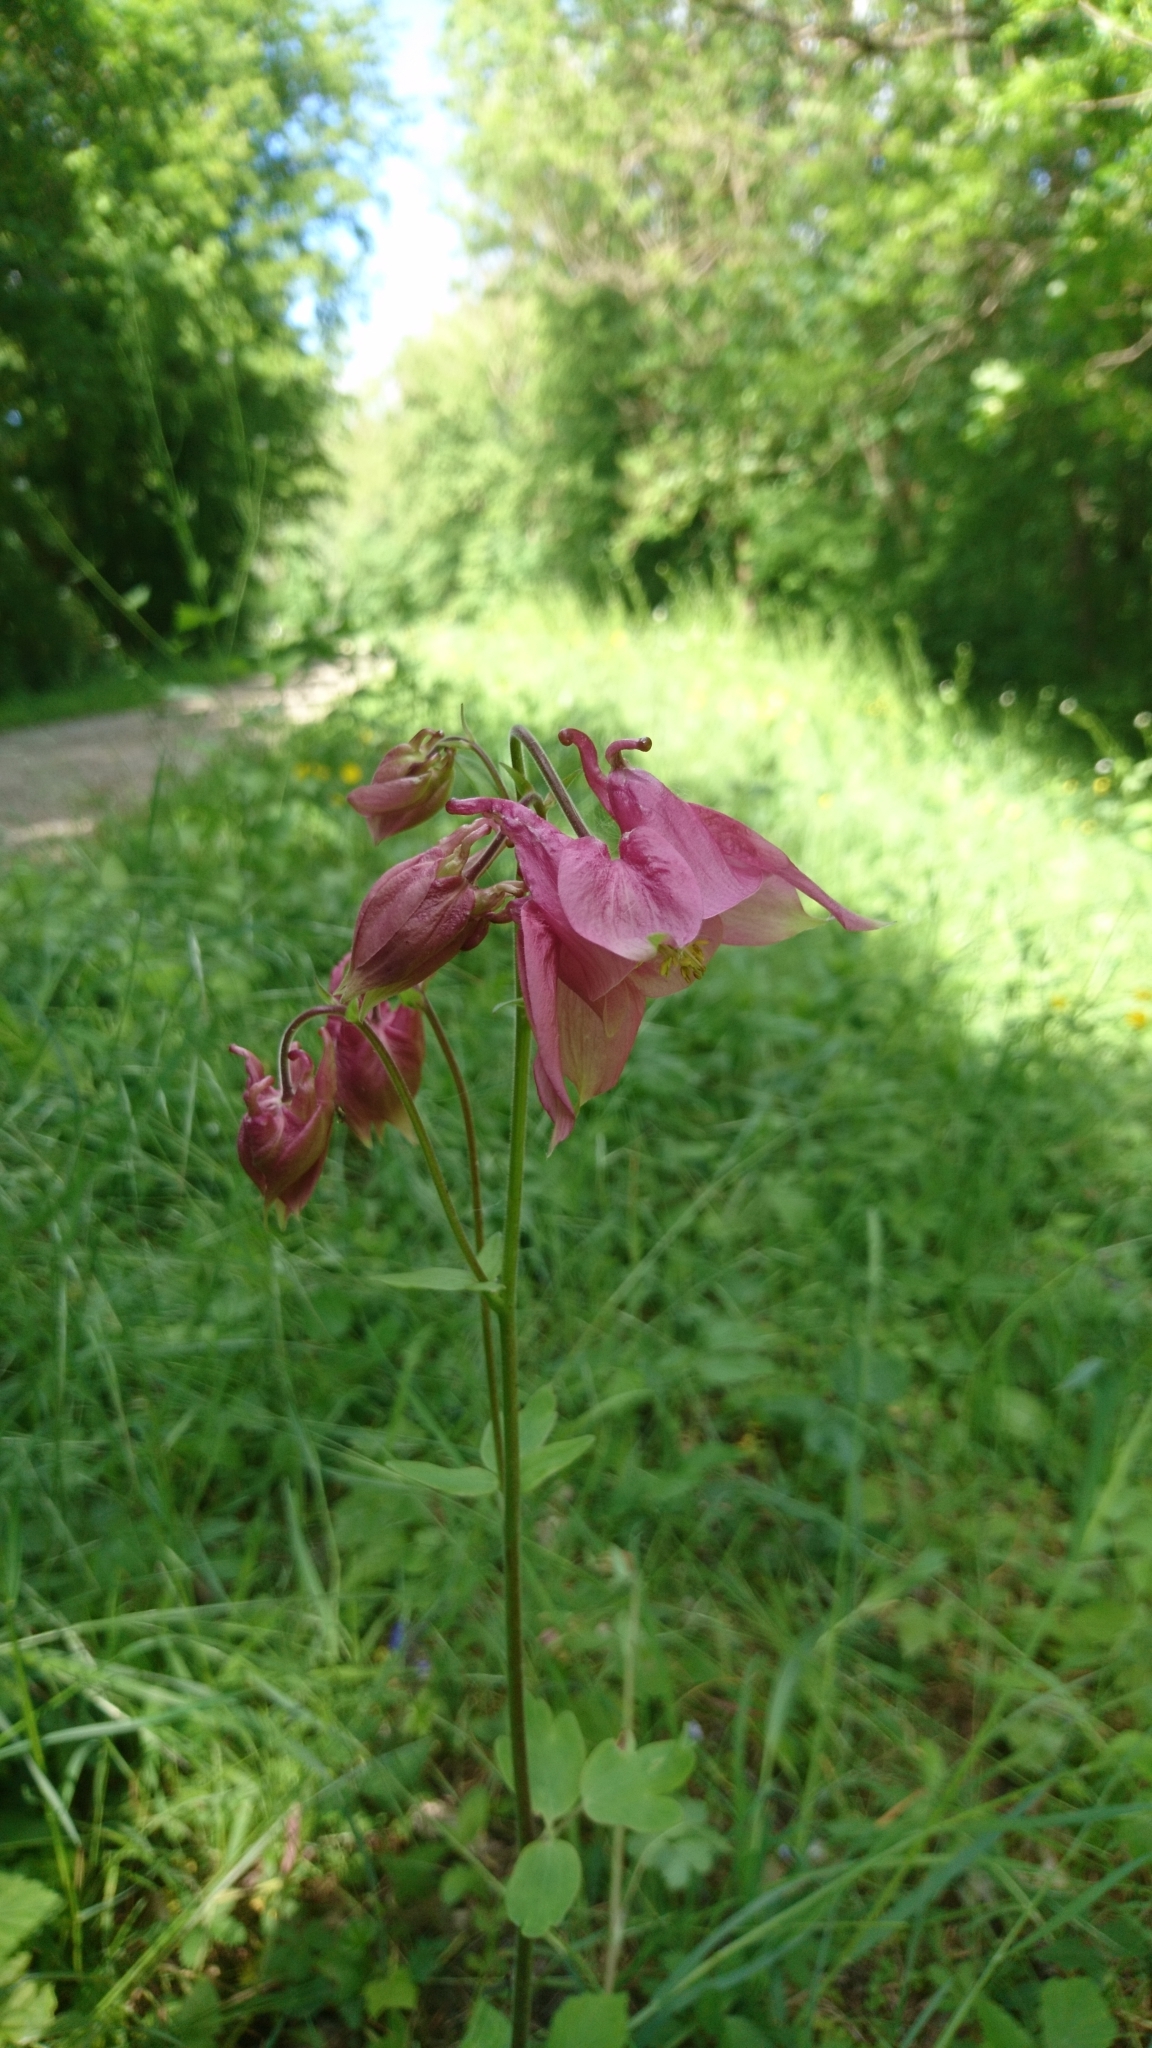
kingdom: Plantae
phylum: Tracheophyta
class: Magnoliopsida
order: Ranunculales
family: Ranunculaceae
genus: Aquilegia
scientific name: Aquilegia vulgaris
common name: Columbine
